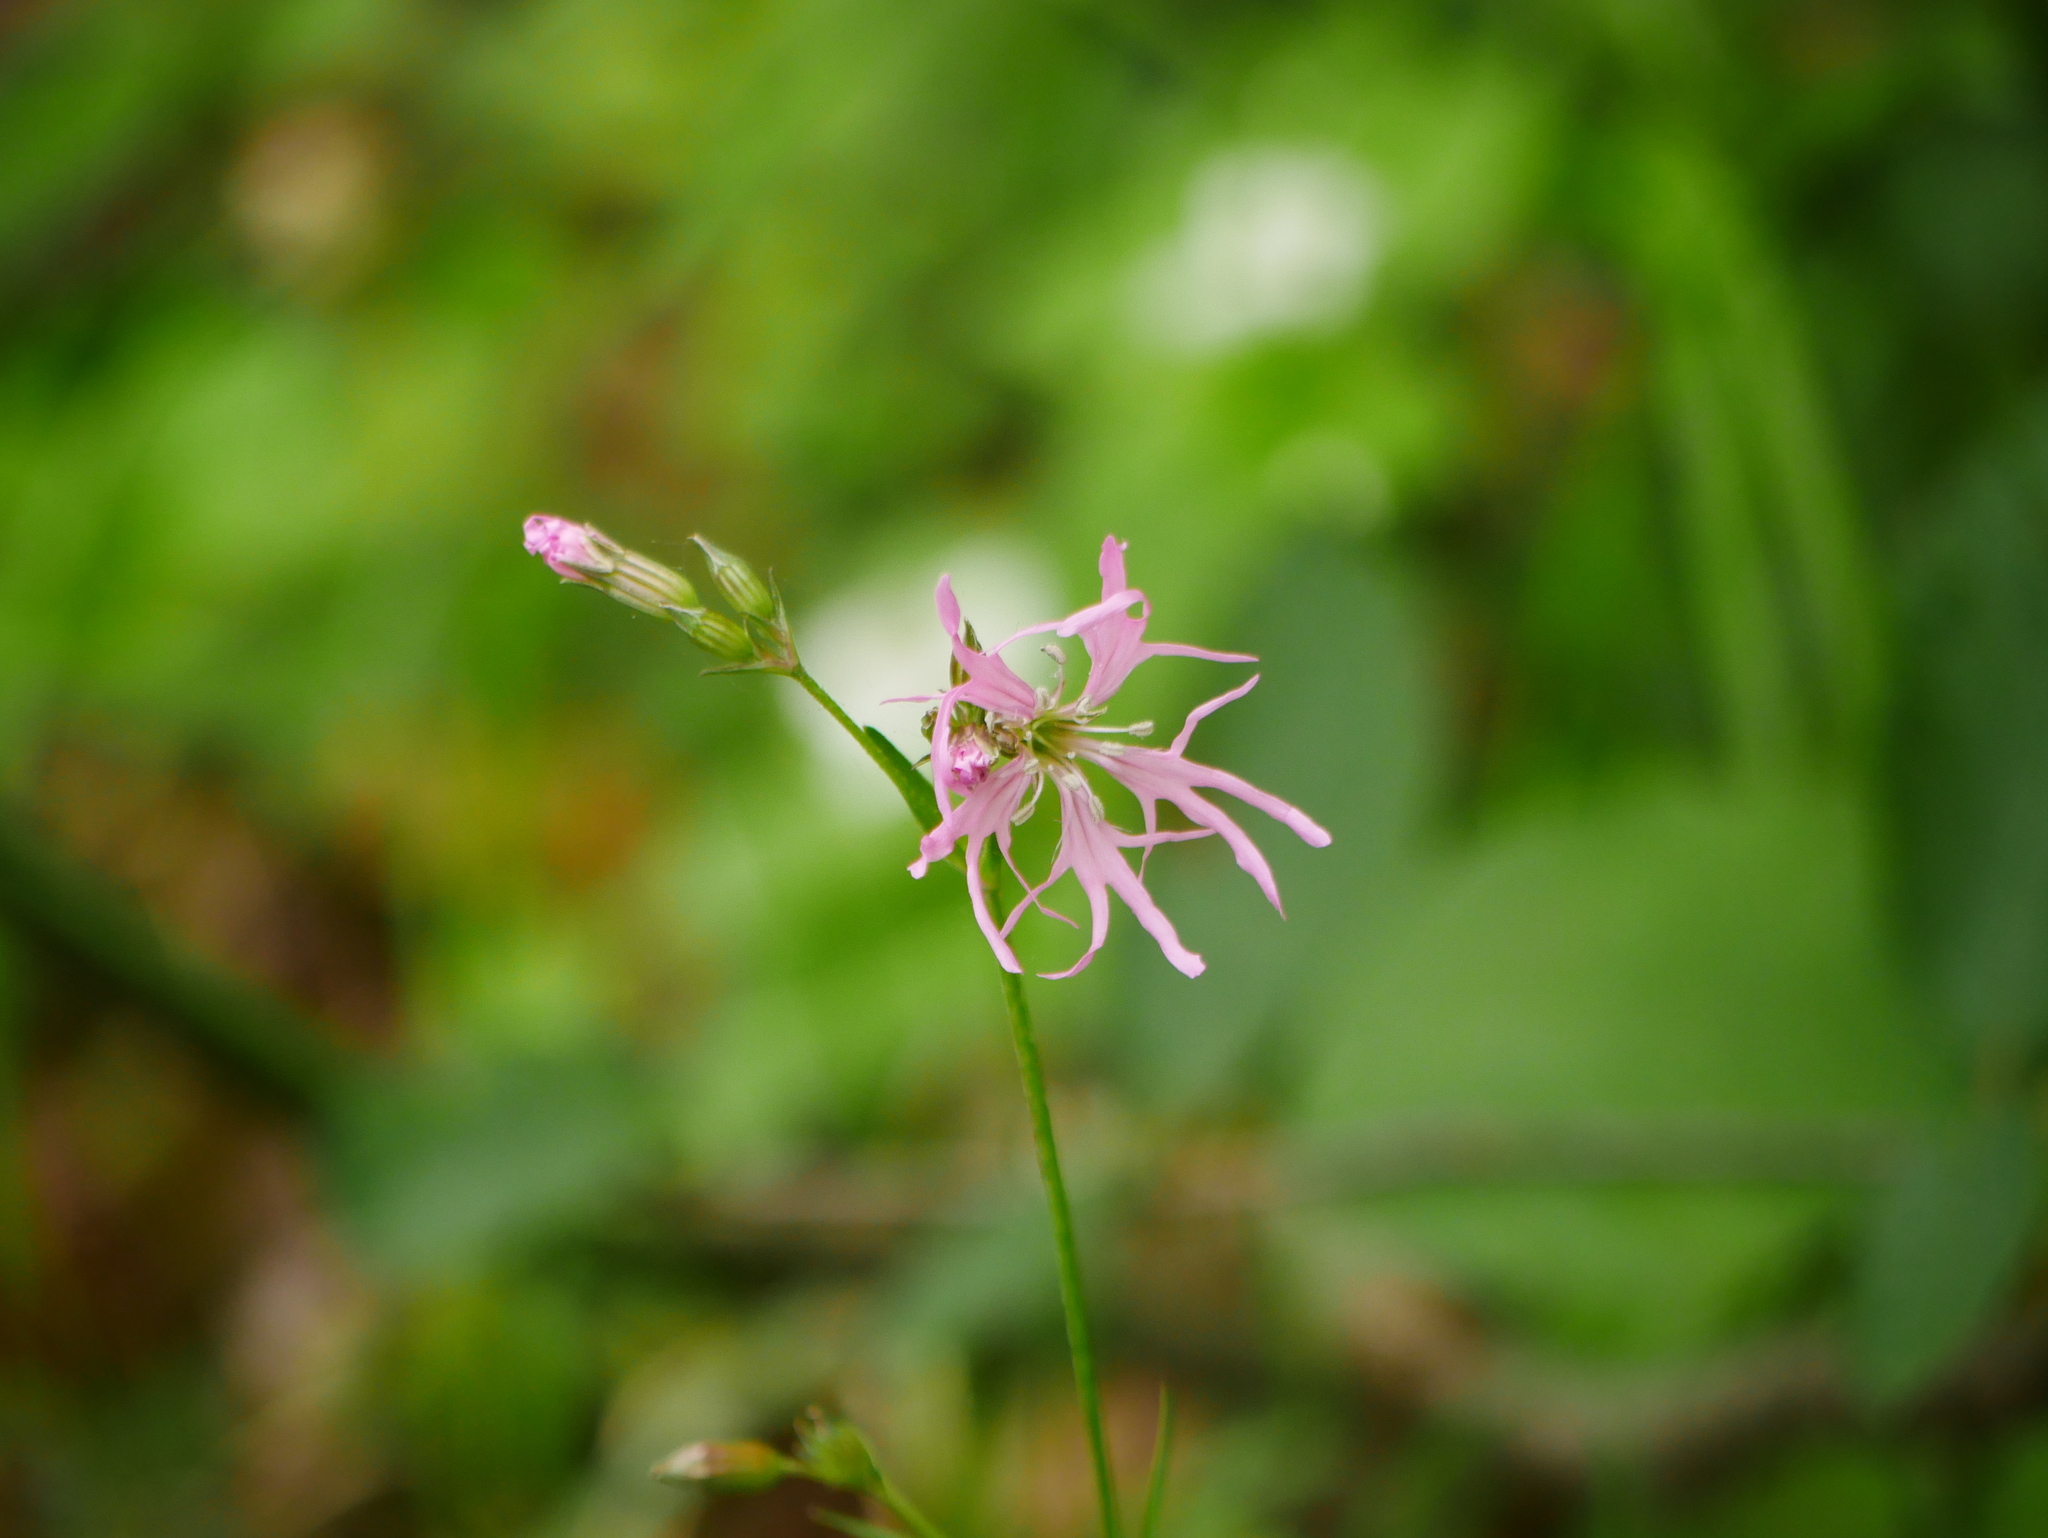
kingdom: Plantae
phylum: Tracheophyta
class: Magnoliopsida
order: Caryophyllales
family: Caryophyllaceae
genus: Silene
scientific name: Silene flos-cuculi
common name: Ragged-robin
